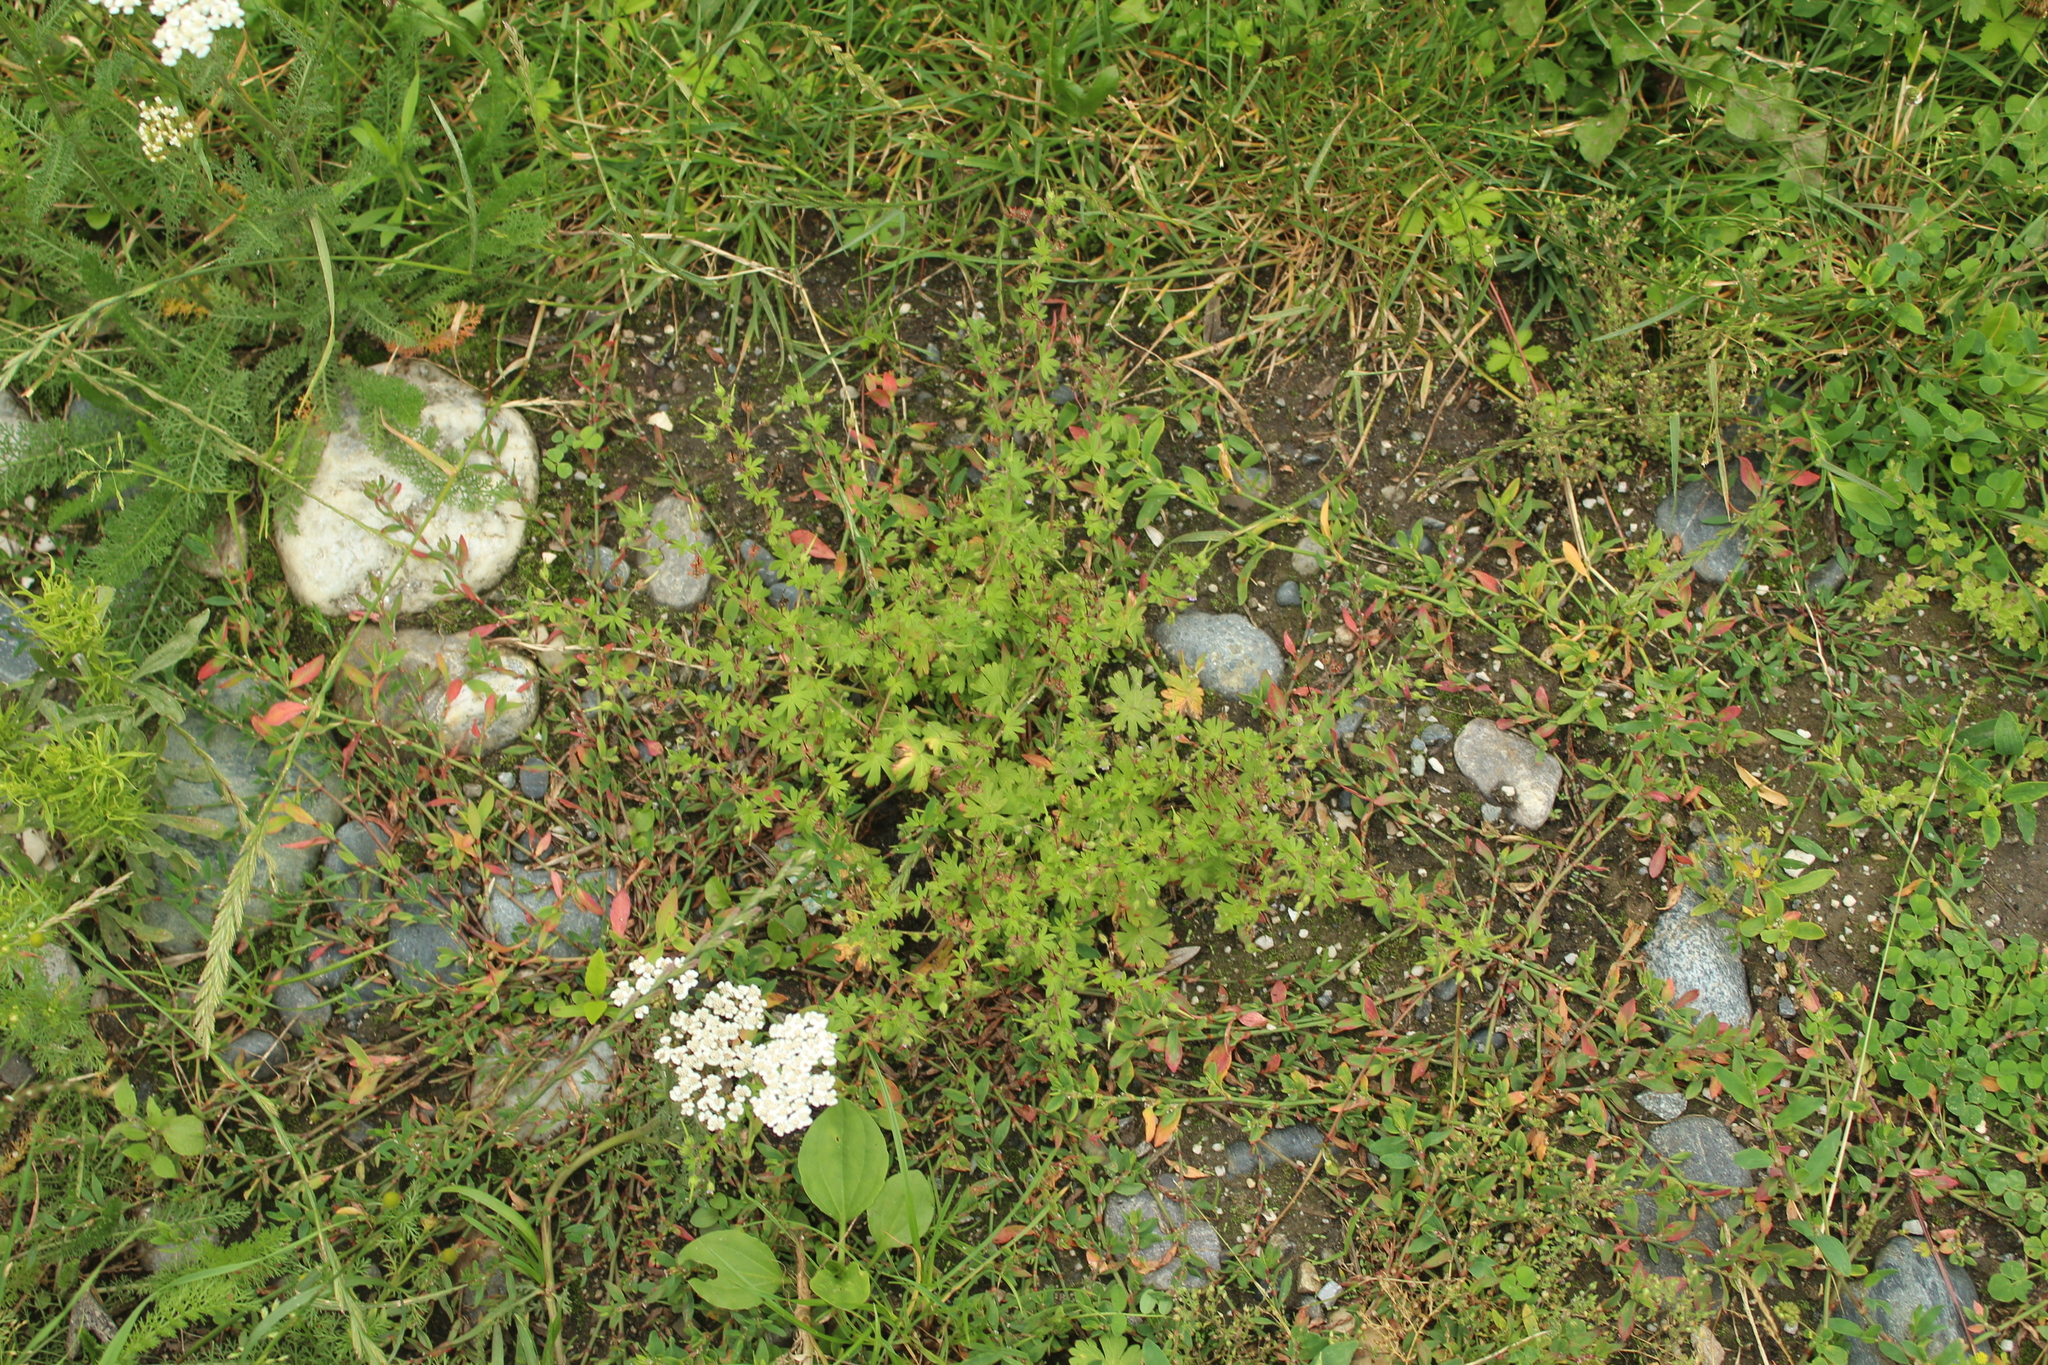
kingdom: Plantae
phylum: Tracheophyta
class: Magnoliopsida
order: Geraniales
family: Geraniaceae
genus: Geranium
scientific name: Geranium pusillum
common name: Small geranium
